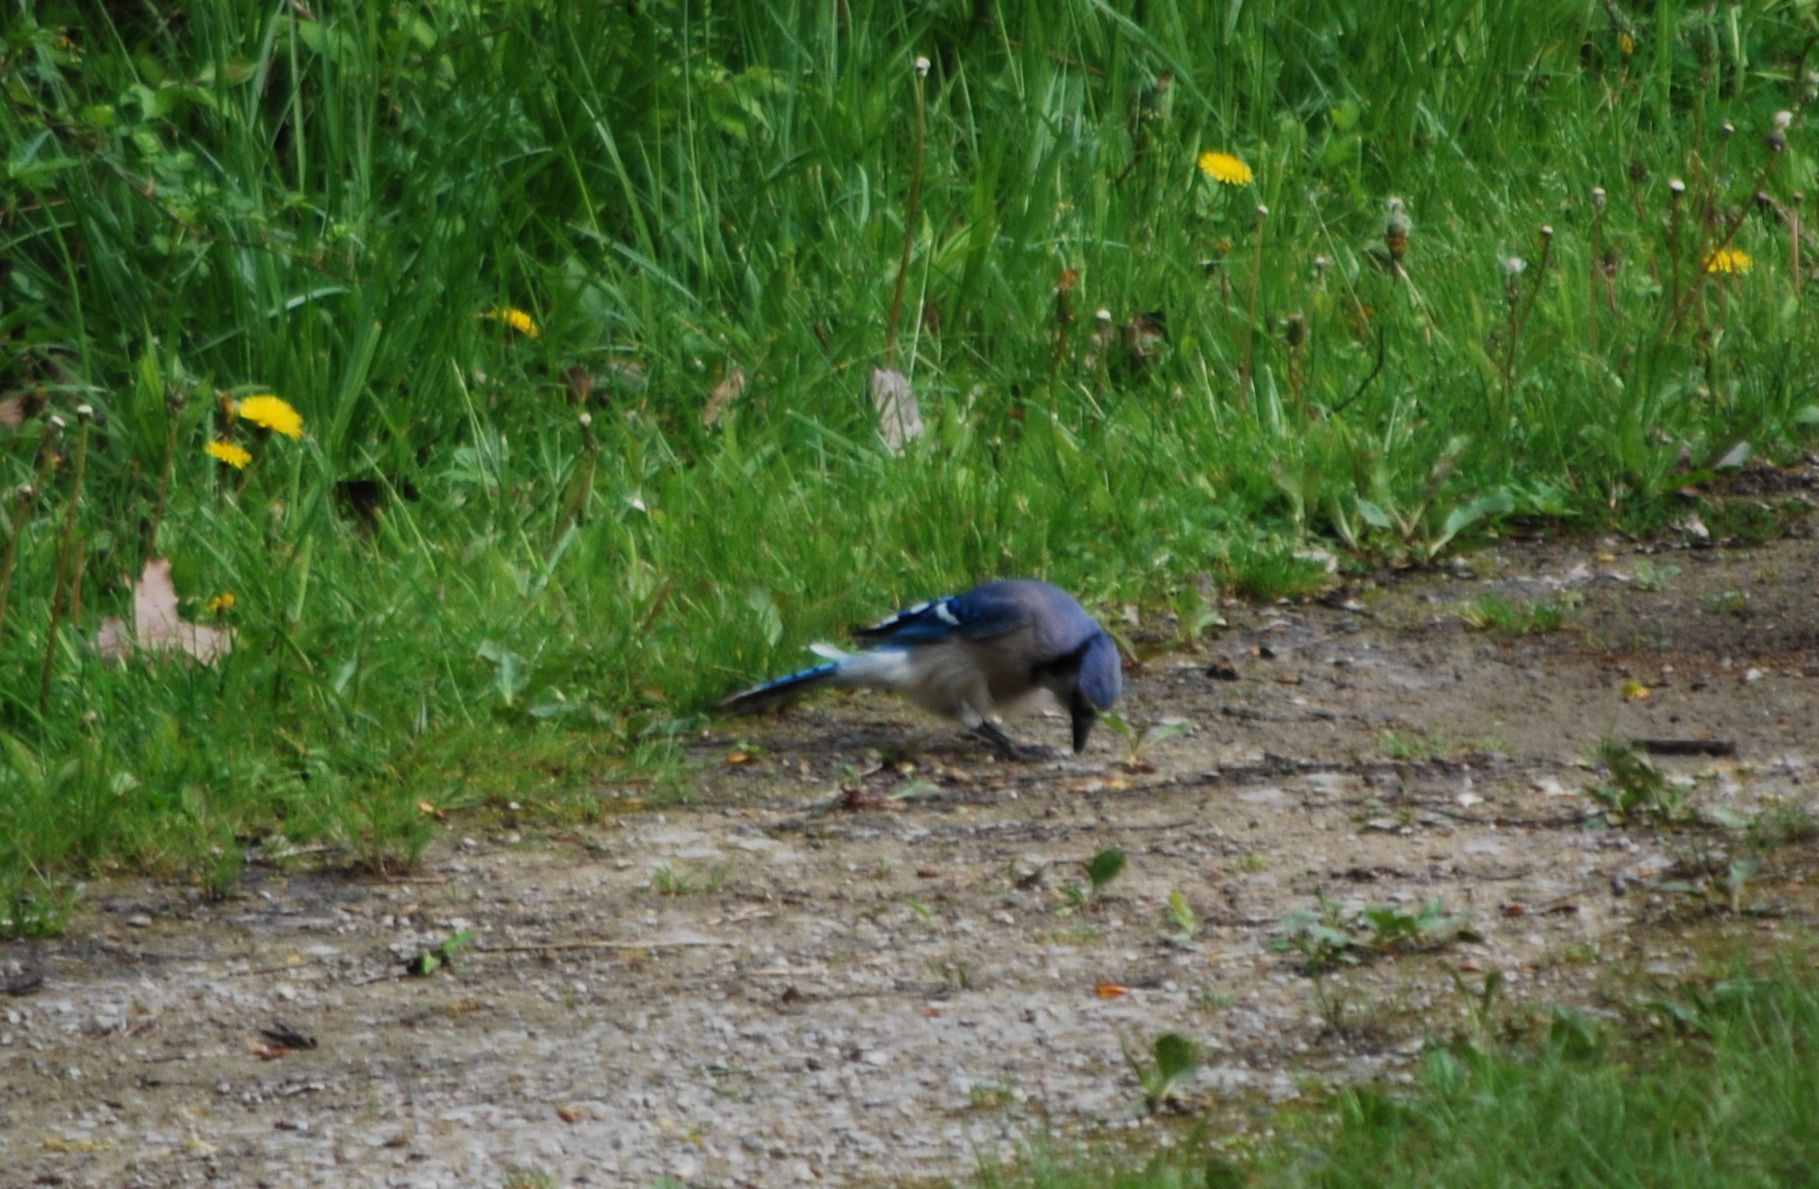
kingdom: Animalia
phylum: Chordata
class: Aves
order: Passeriformes
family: Corvidae
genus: Cyanocitta
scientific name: Cyanocitta cristata
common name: Blue jay
